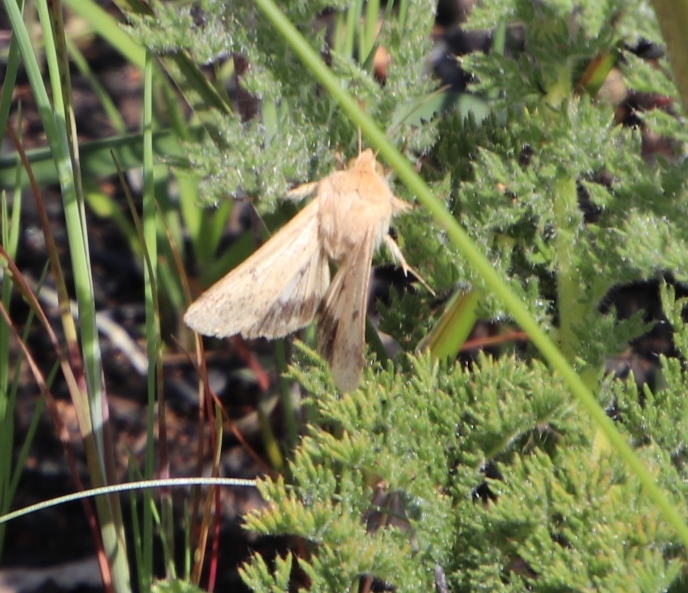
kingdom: Animalia
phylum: Arthropoda
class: Insecta
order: Lepidoptera
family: Noctuidae
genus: Helicoverpa
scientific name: Helicoverpa armigera
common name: Cotton bollworm
